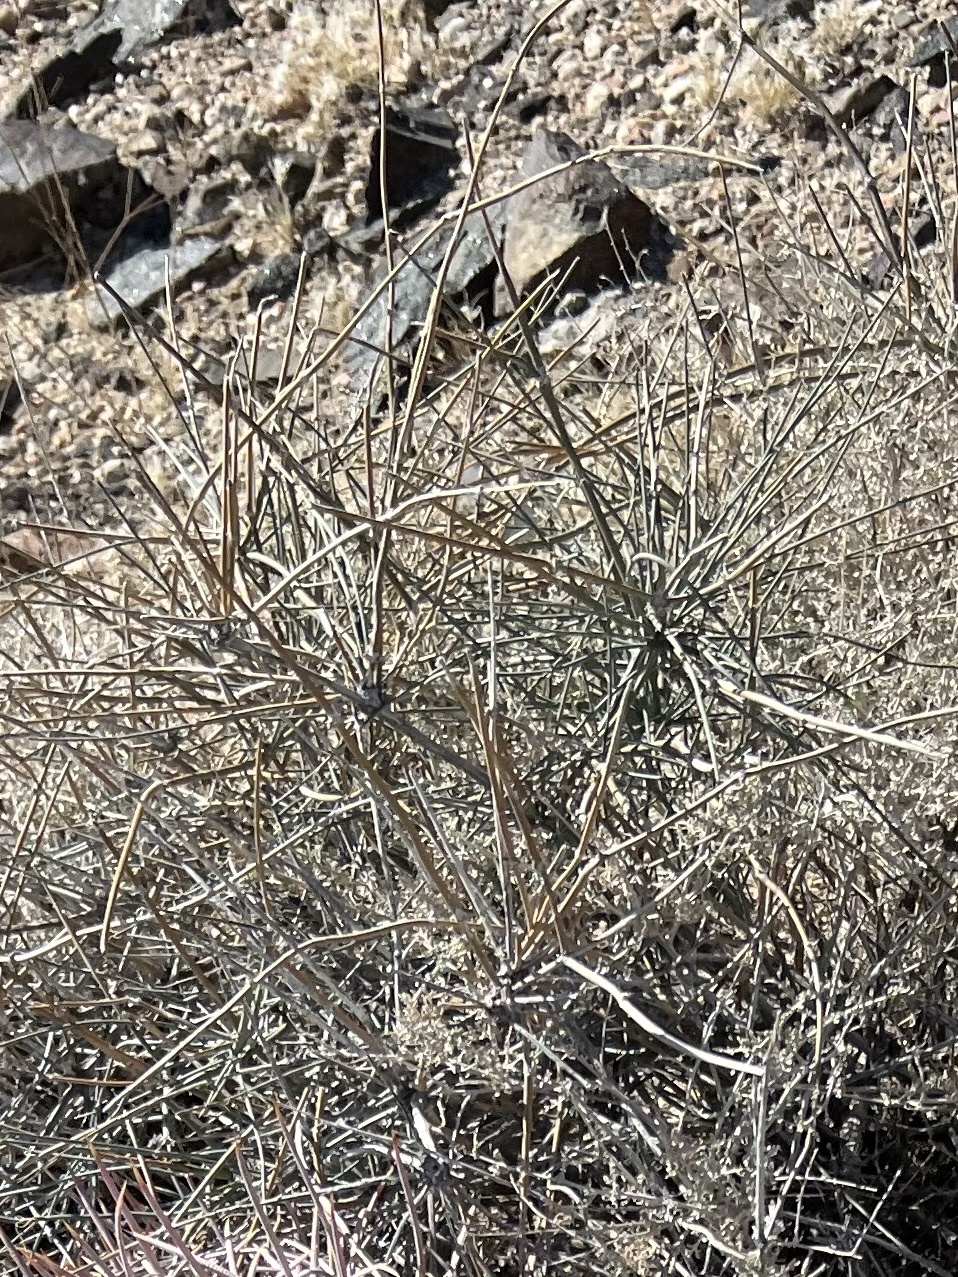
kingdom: Plantae
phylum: Tracheophyta
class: Gnetopsida
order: Ephedrales
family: Ephedraceae
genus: Ephedra
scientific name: Ephedra nevadensis
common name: Gray ephedra
